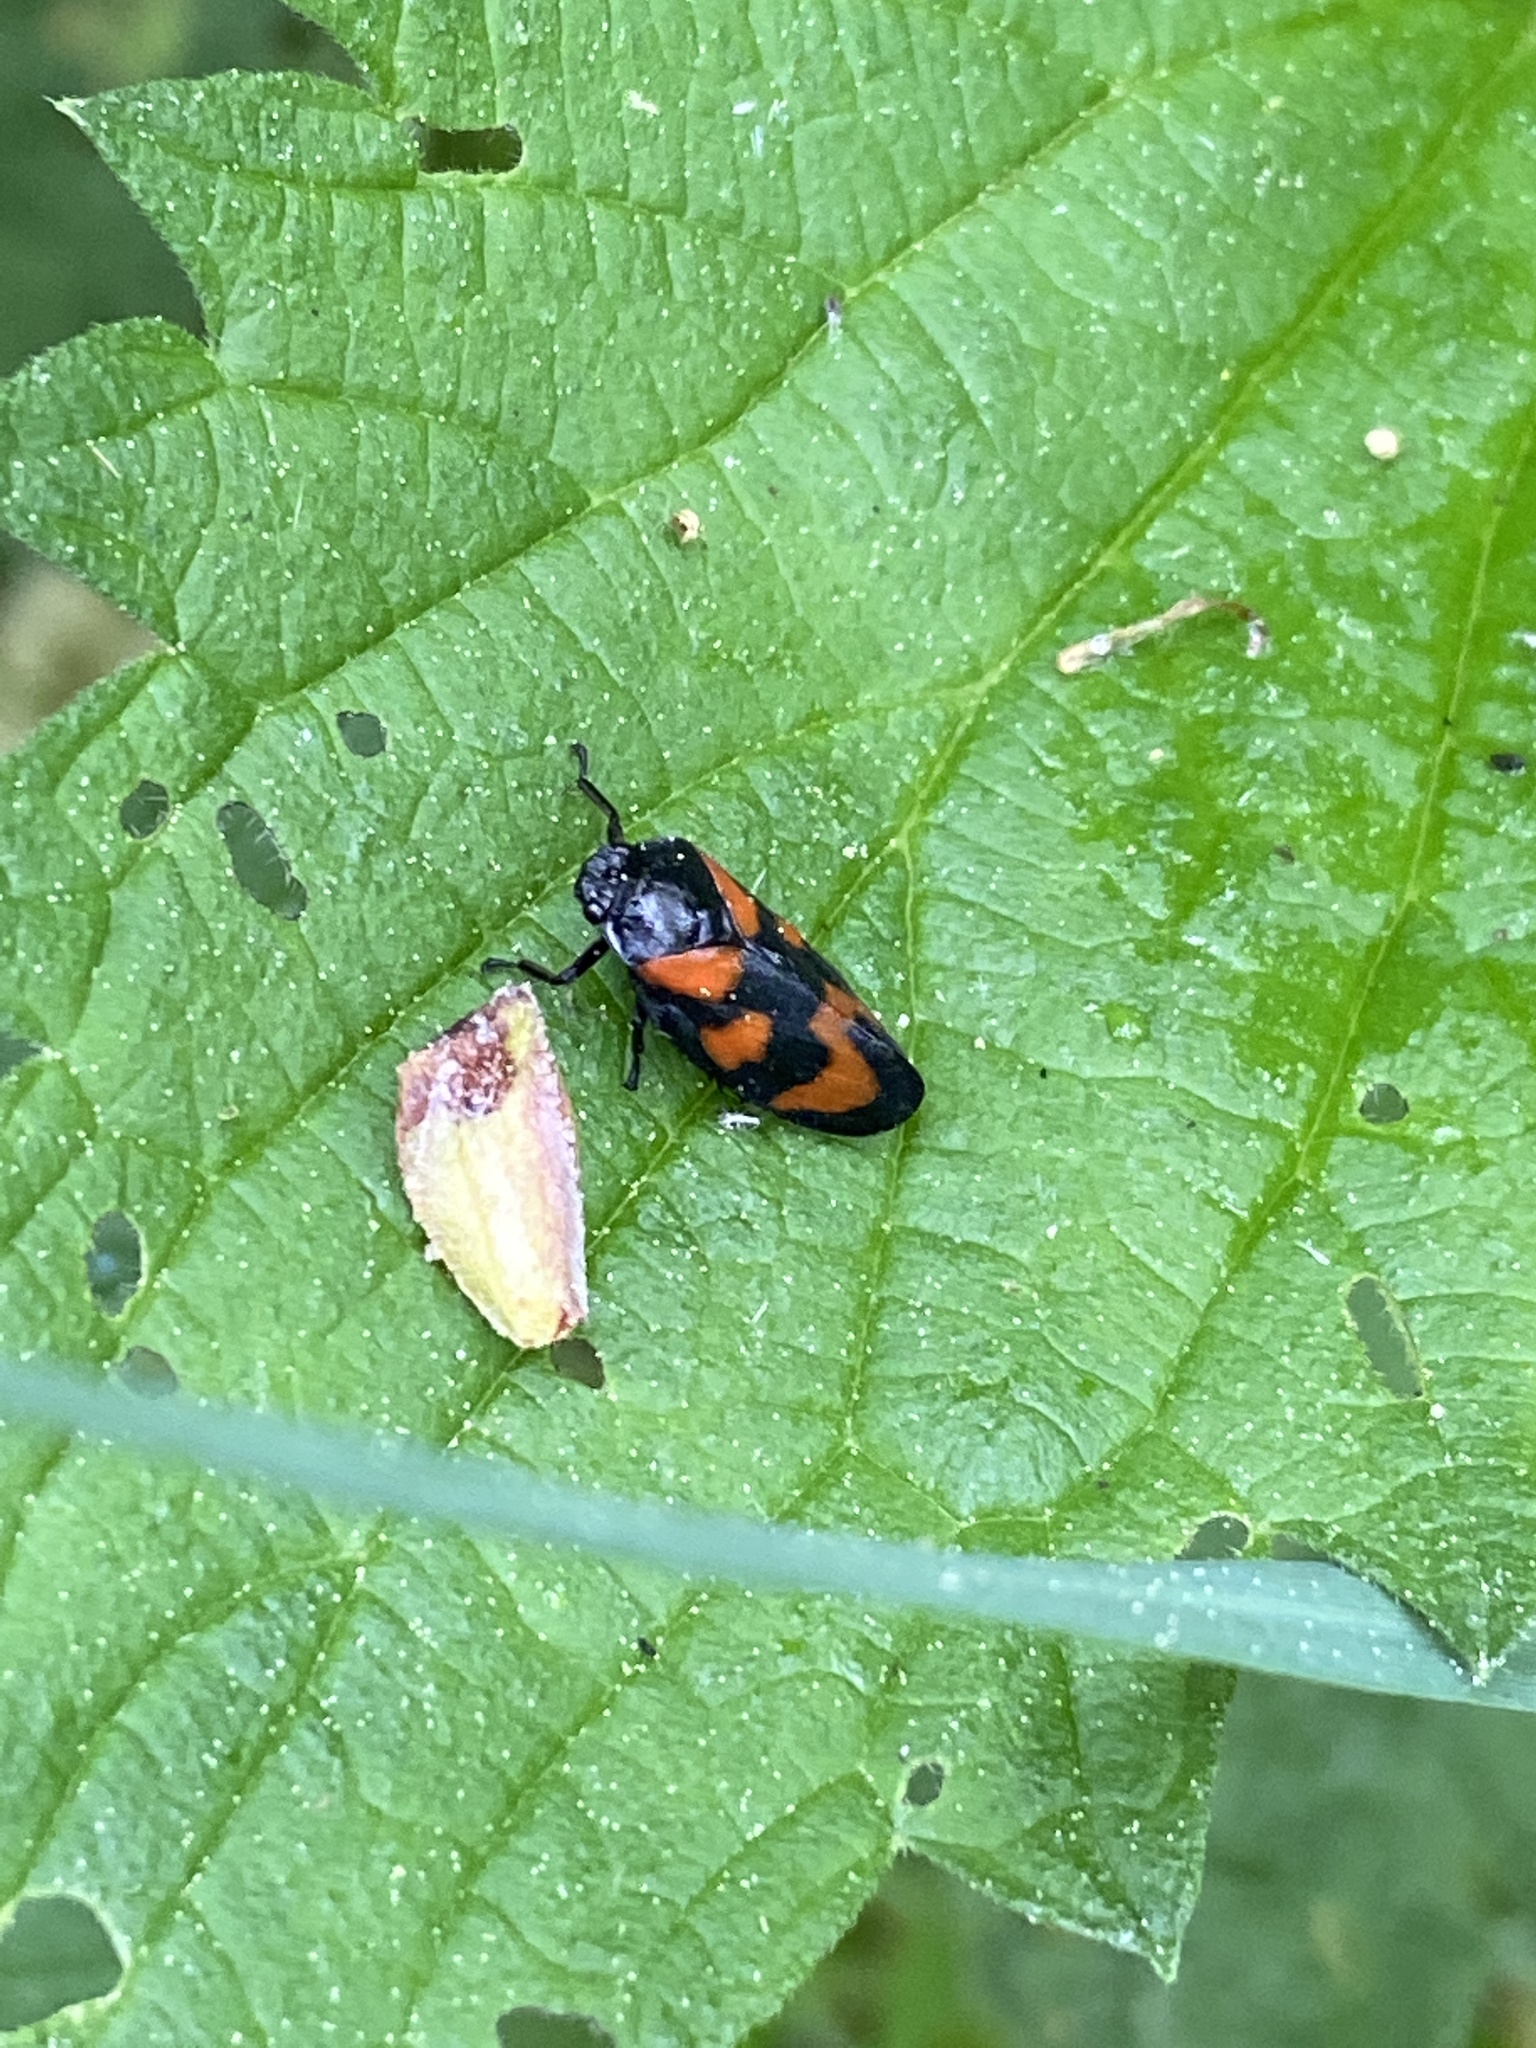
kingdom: Animalia
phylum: Arthropoda
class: Insecta
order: Hemiptera
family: Cercopidae
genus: Cercopis
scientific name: Cercopis vulnerata
